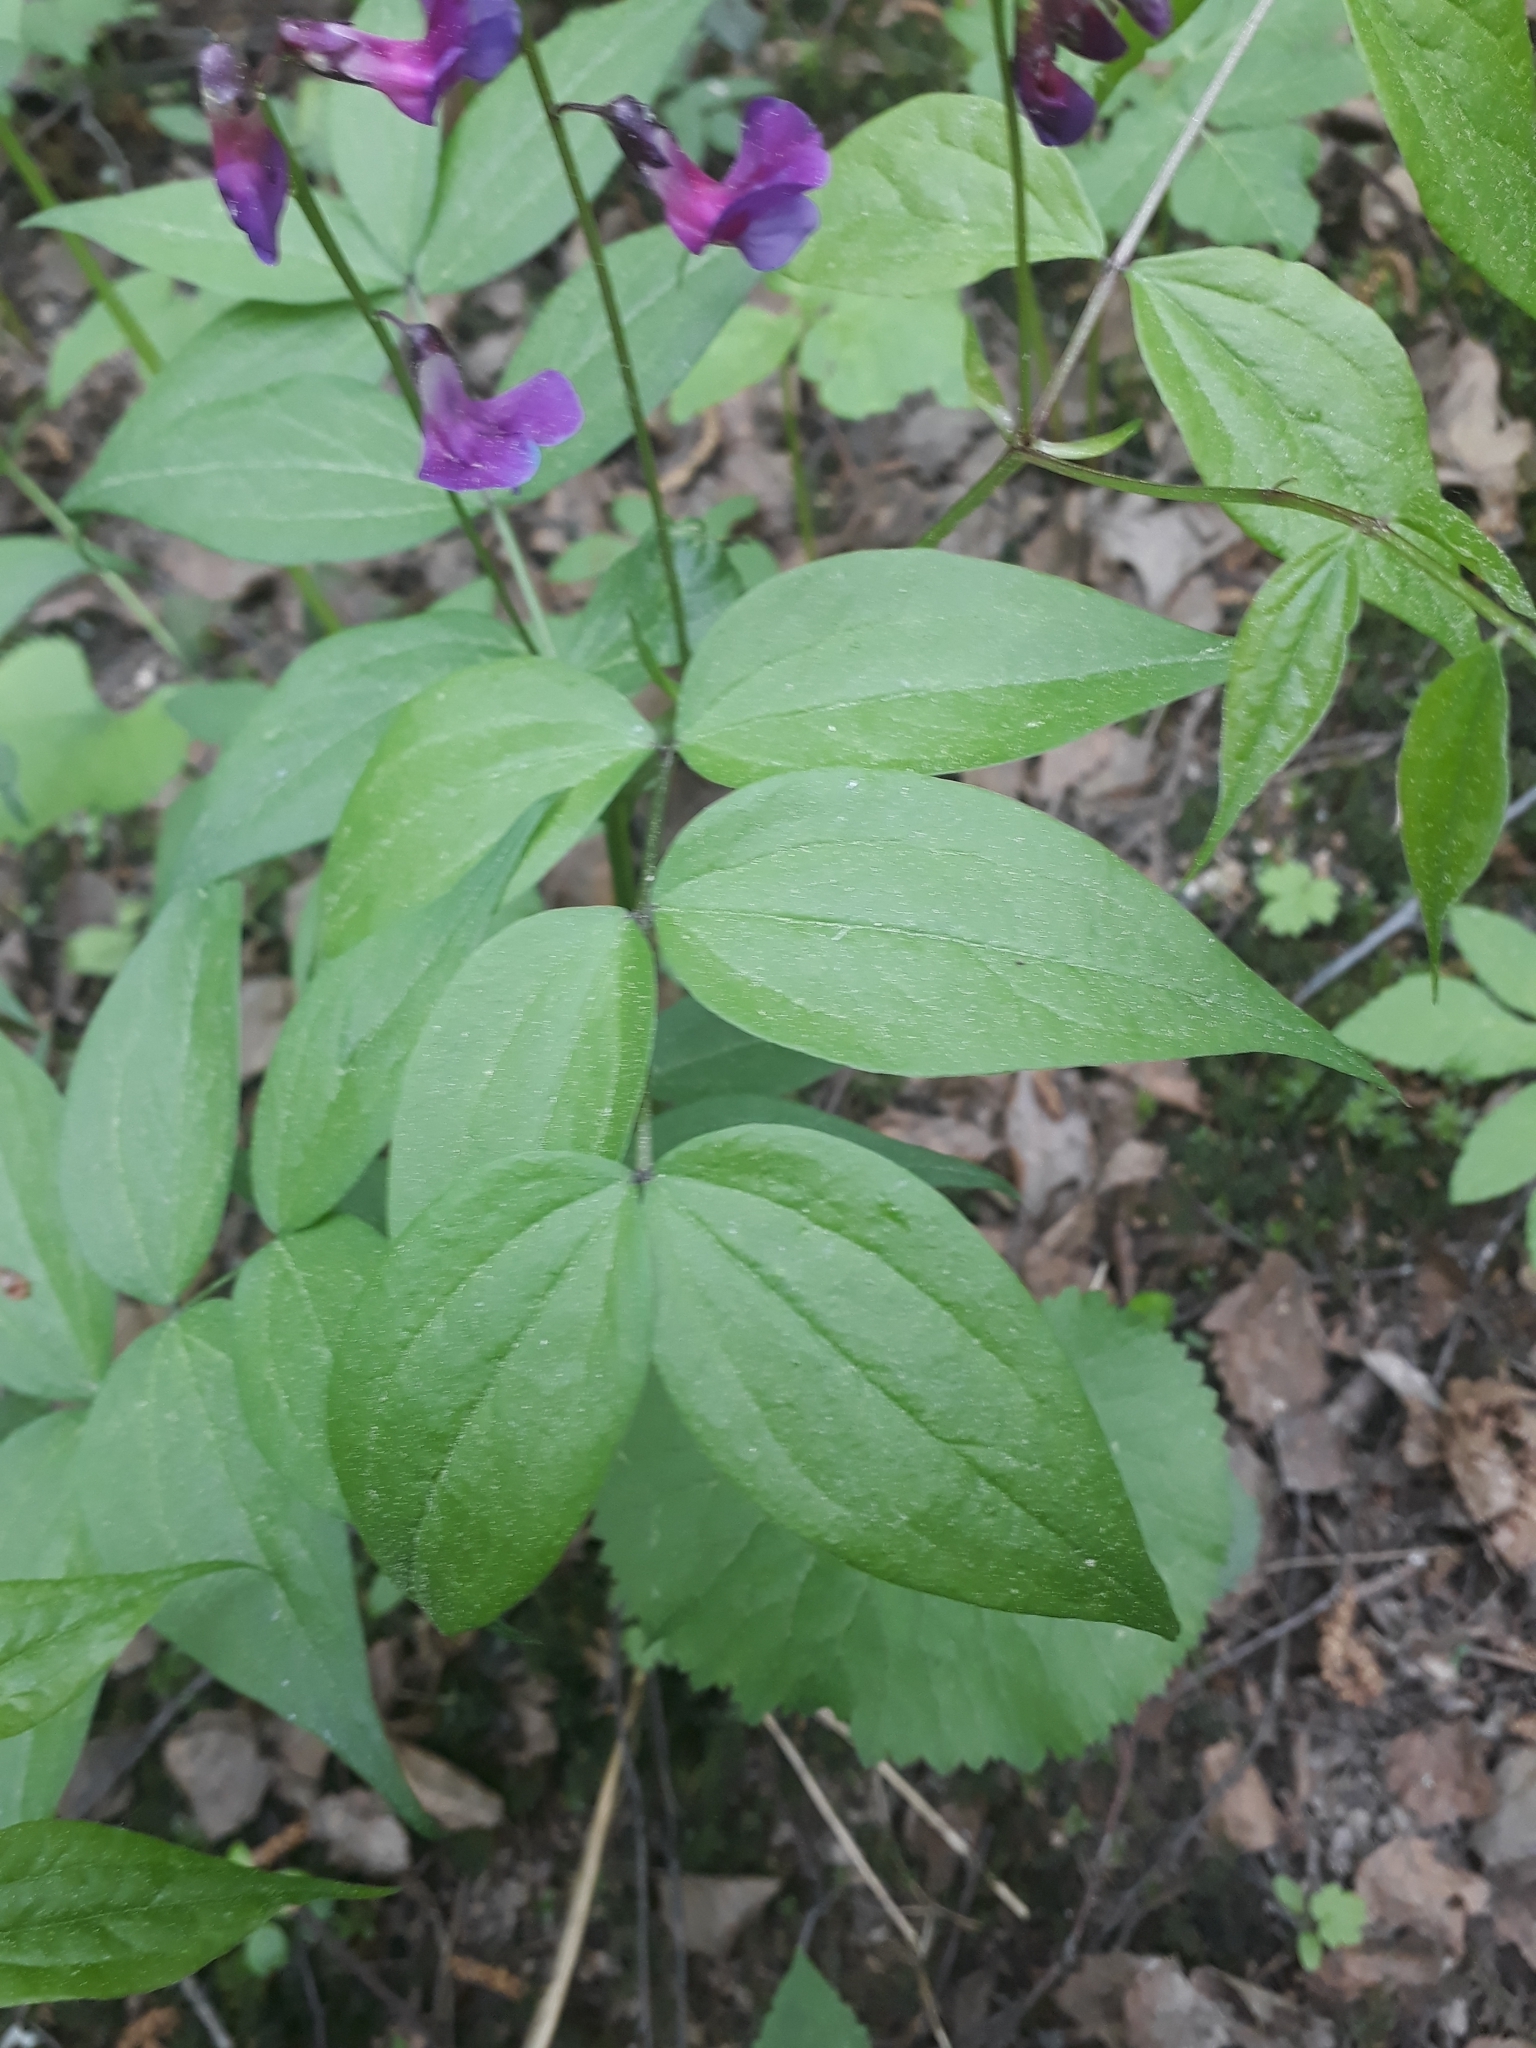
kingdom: Plantae
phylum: Tracheophyta
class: Magnoliopsida
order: Fabales
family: Fabaceae
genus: Lathyrus
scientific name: Lathyrus vernus
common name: Spring pea
